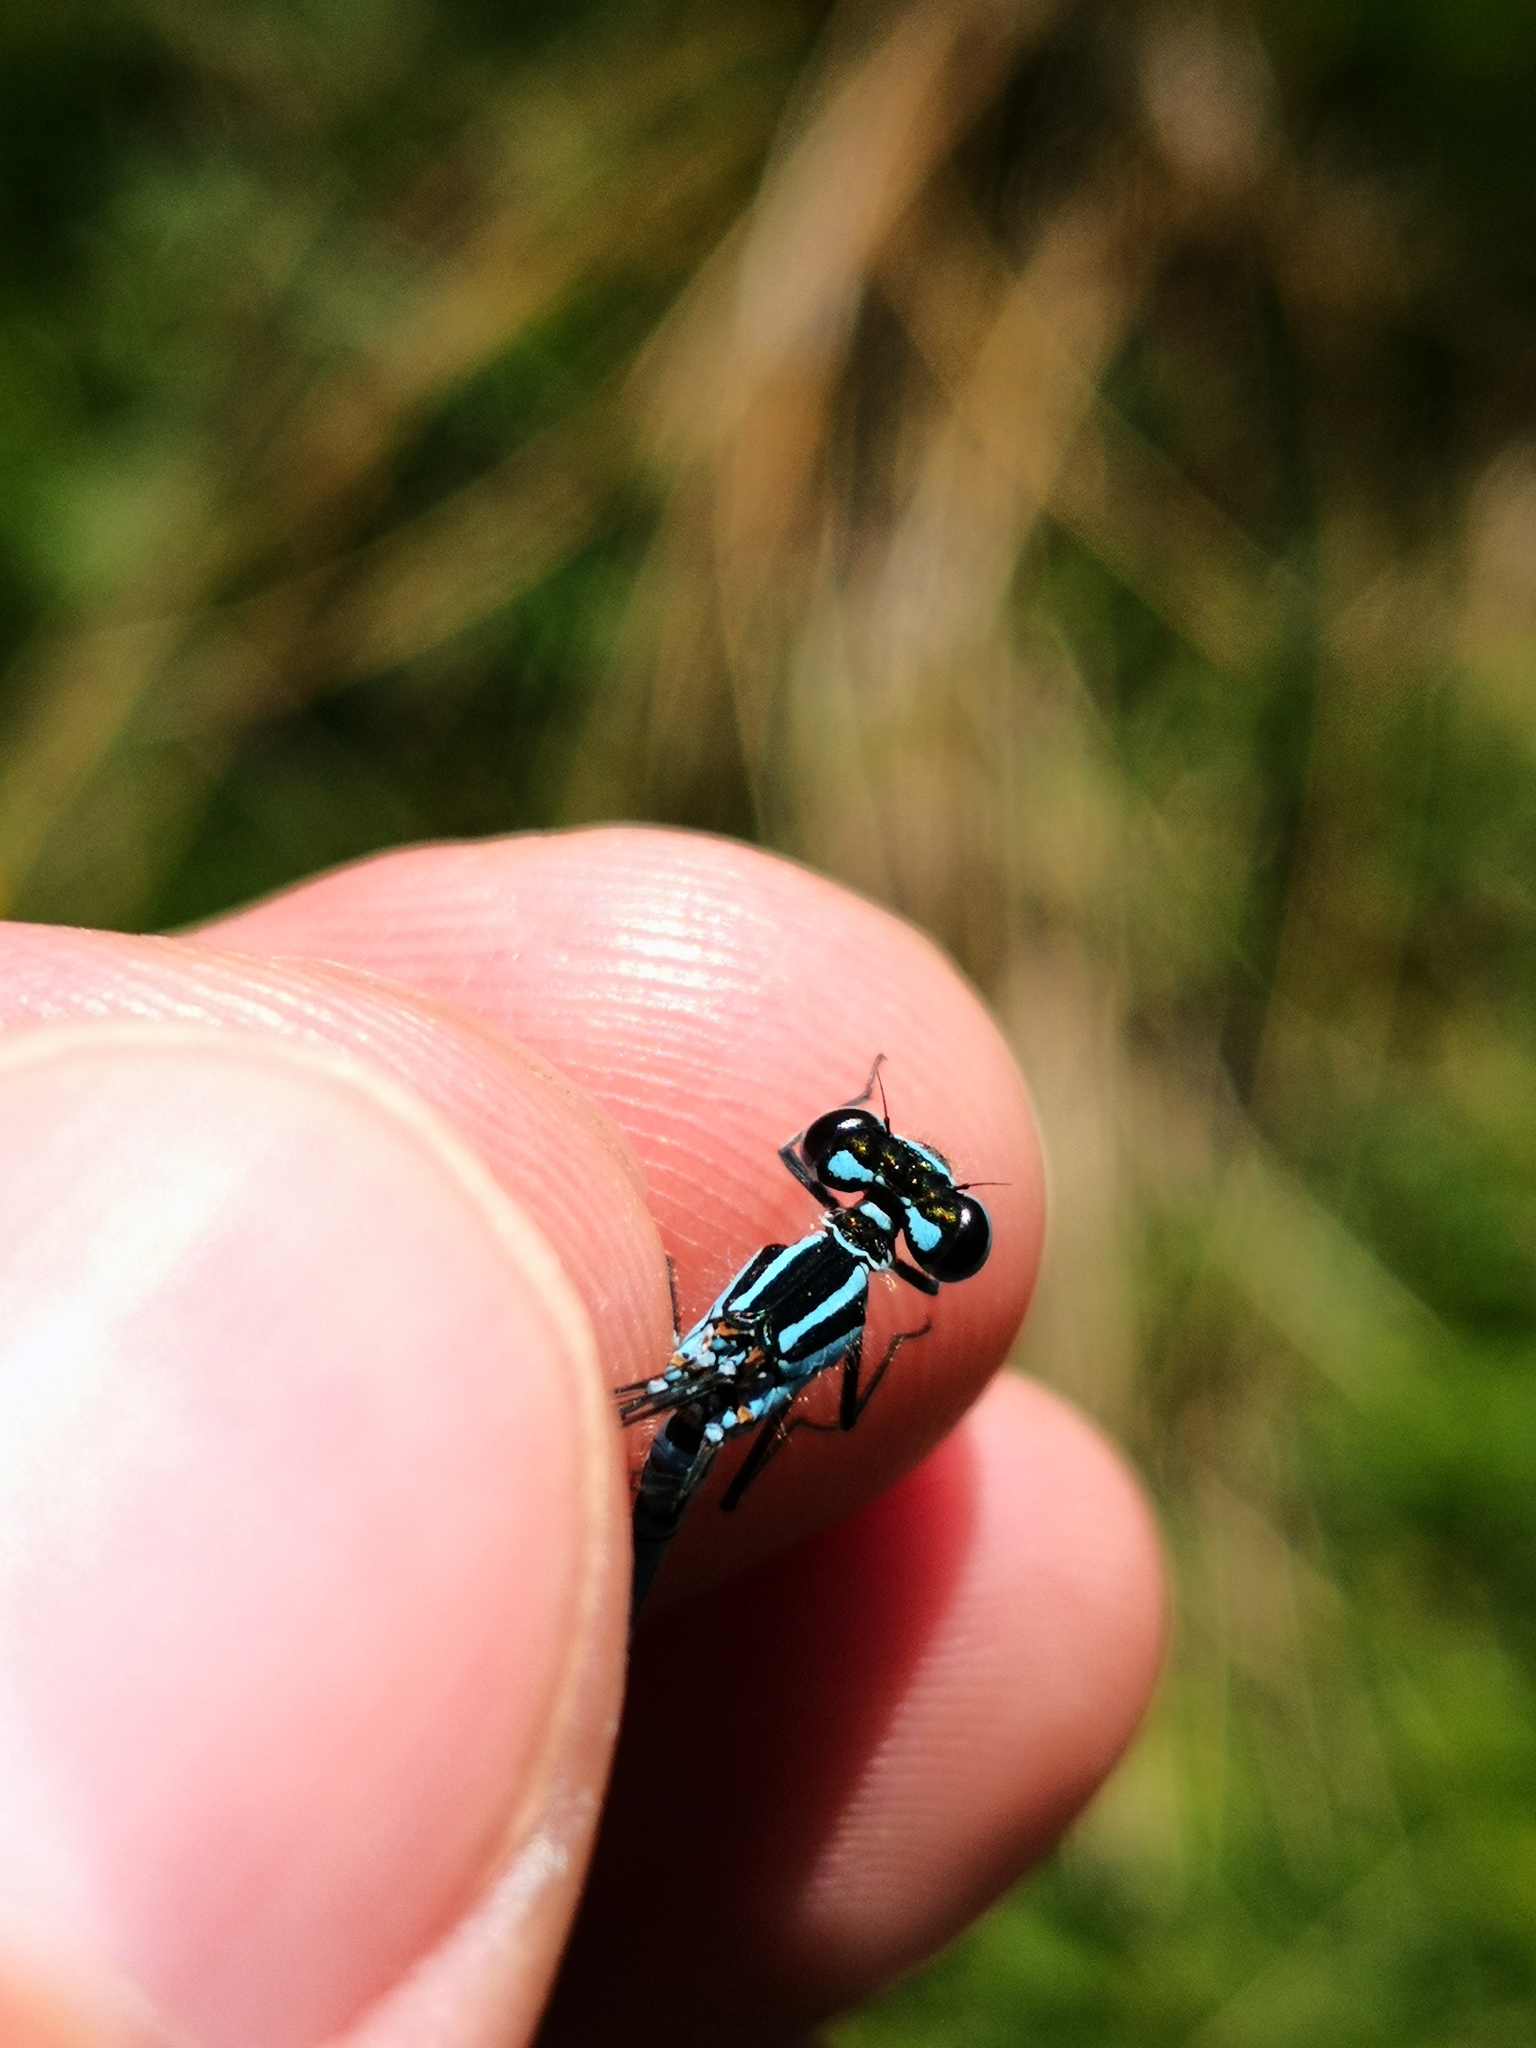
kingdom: Animalia
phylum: Arthropoda
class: Insecta
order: Odonata
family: Coenagrionidae
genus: Coenagrion
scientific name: Coenagrion puella
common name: Azure damselfly
